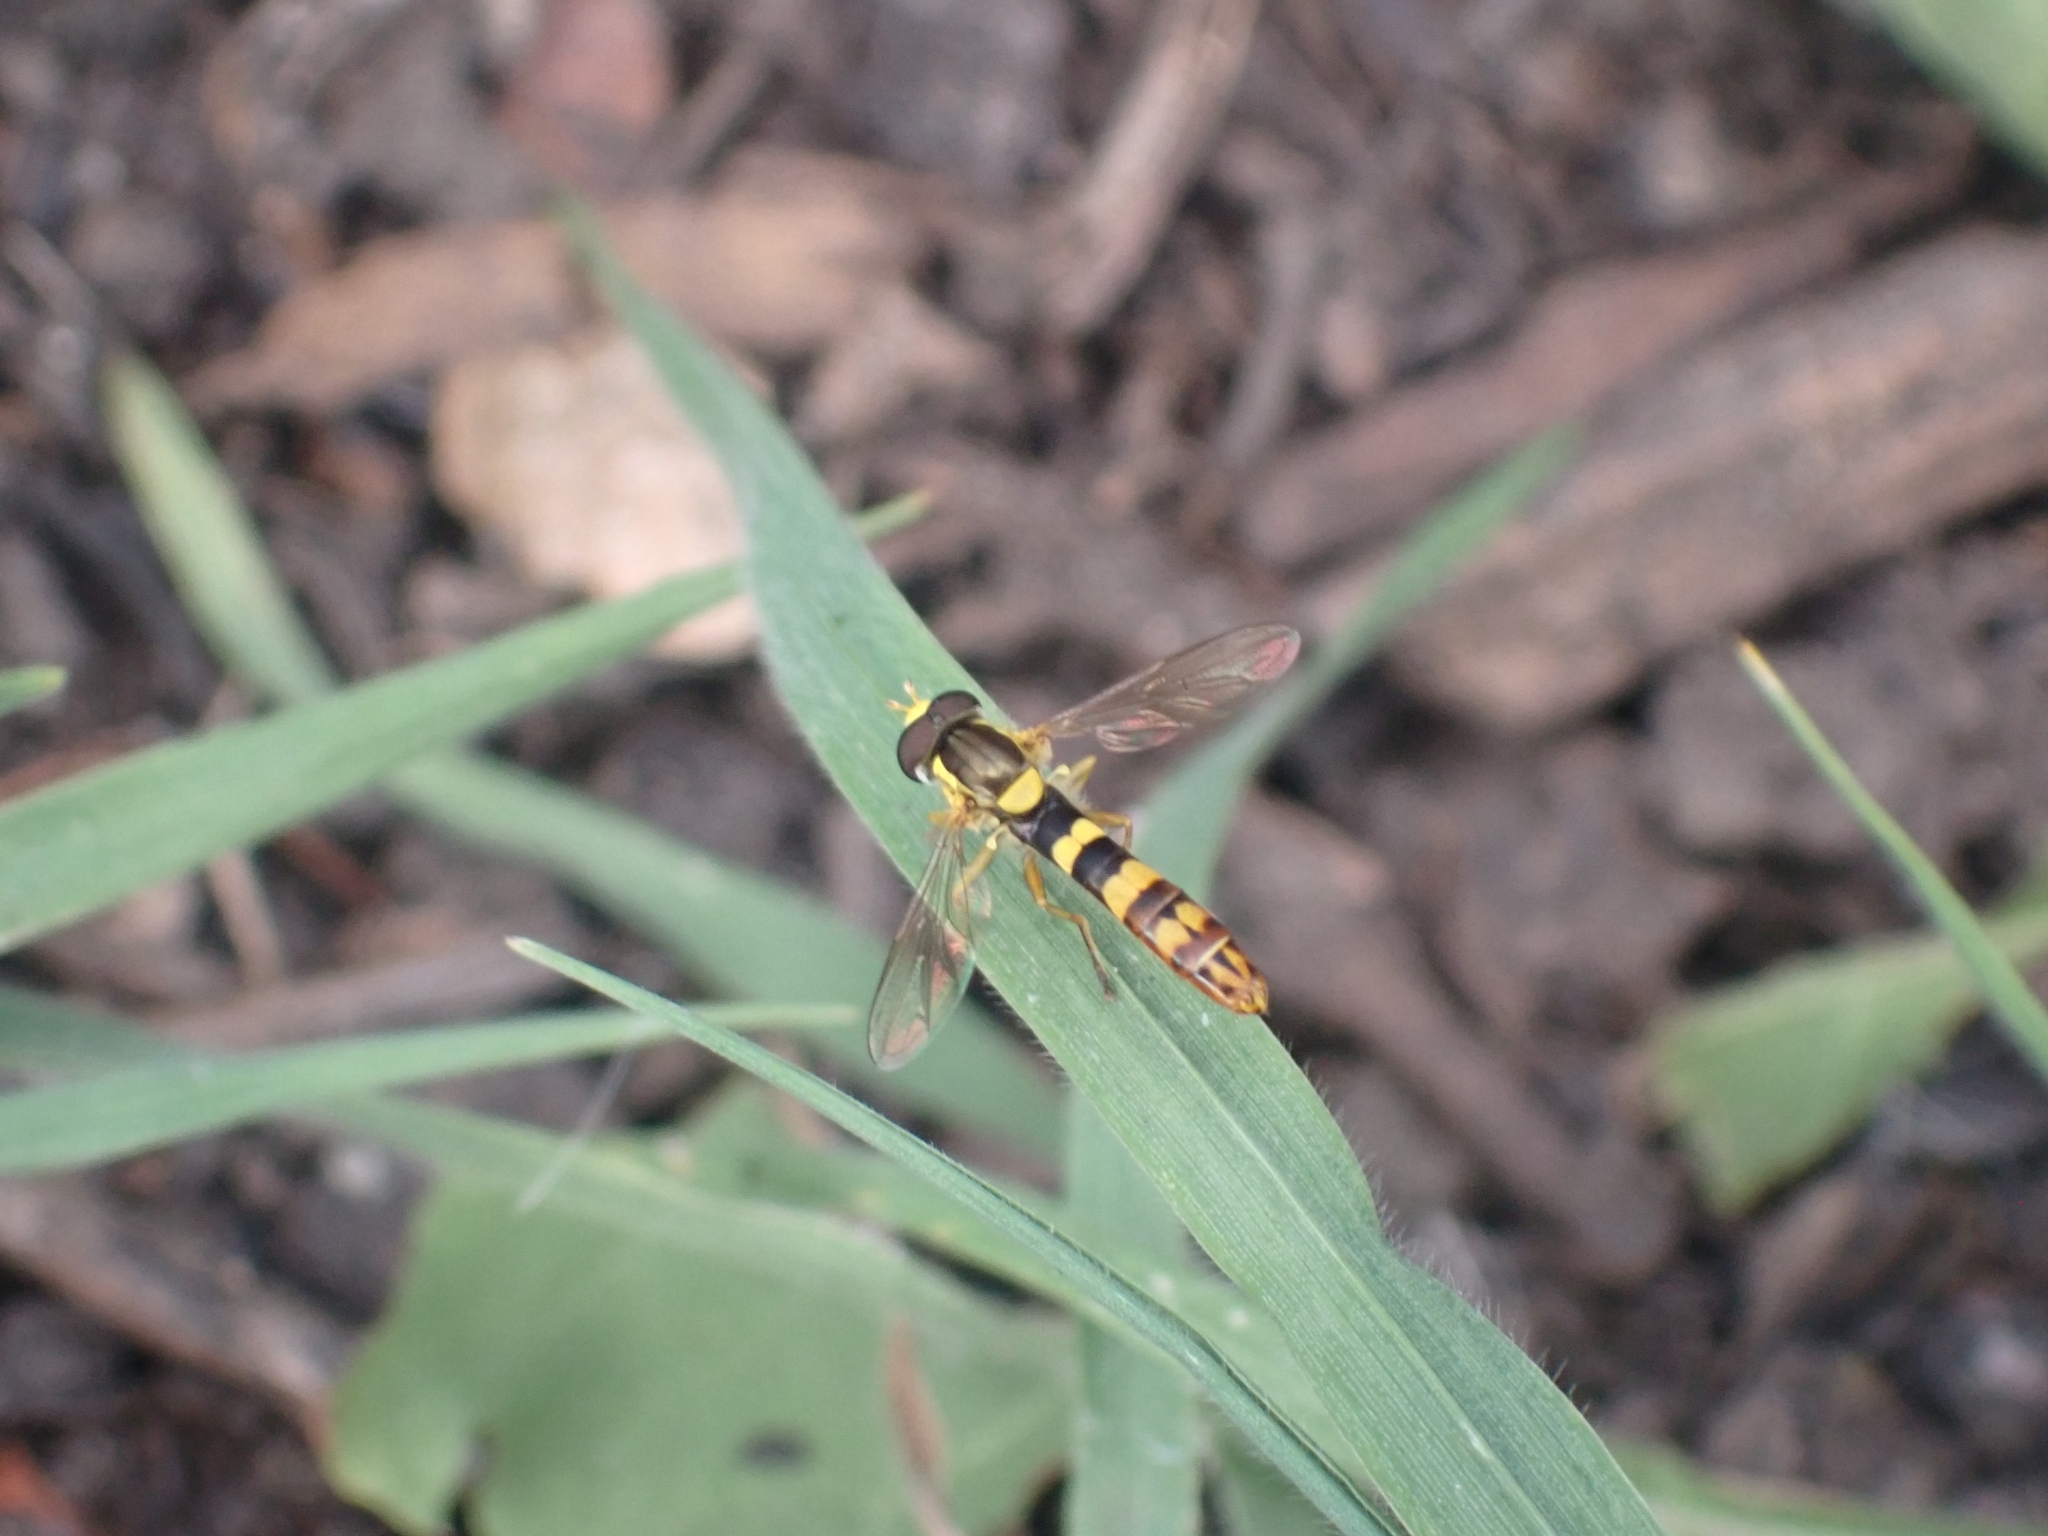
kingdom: Animalia
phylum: Arthropoda
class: Insecta
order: Diptera
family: Syrphidae
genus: Sphaerophoria
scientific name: Sphaerophoria scripta
